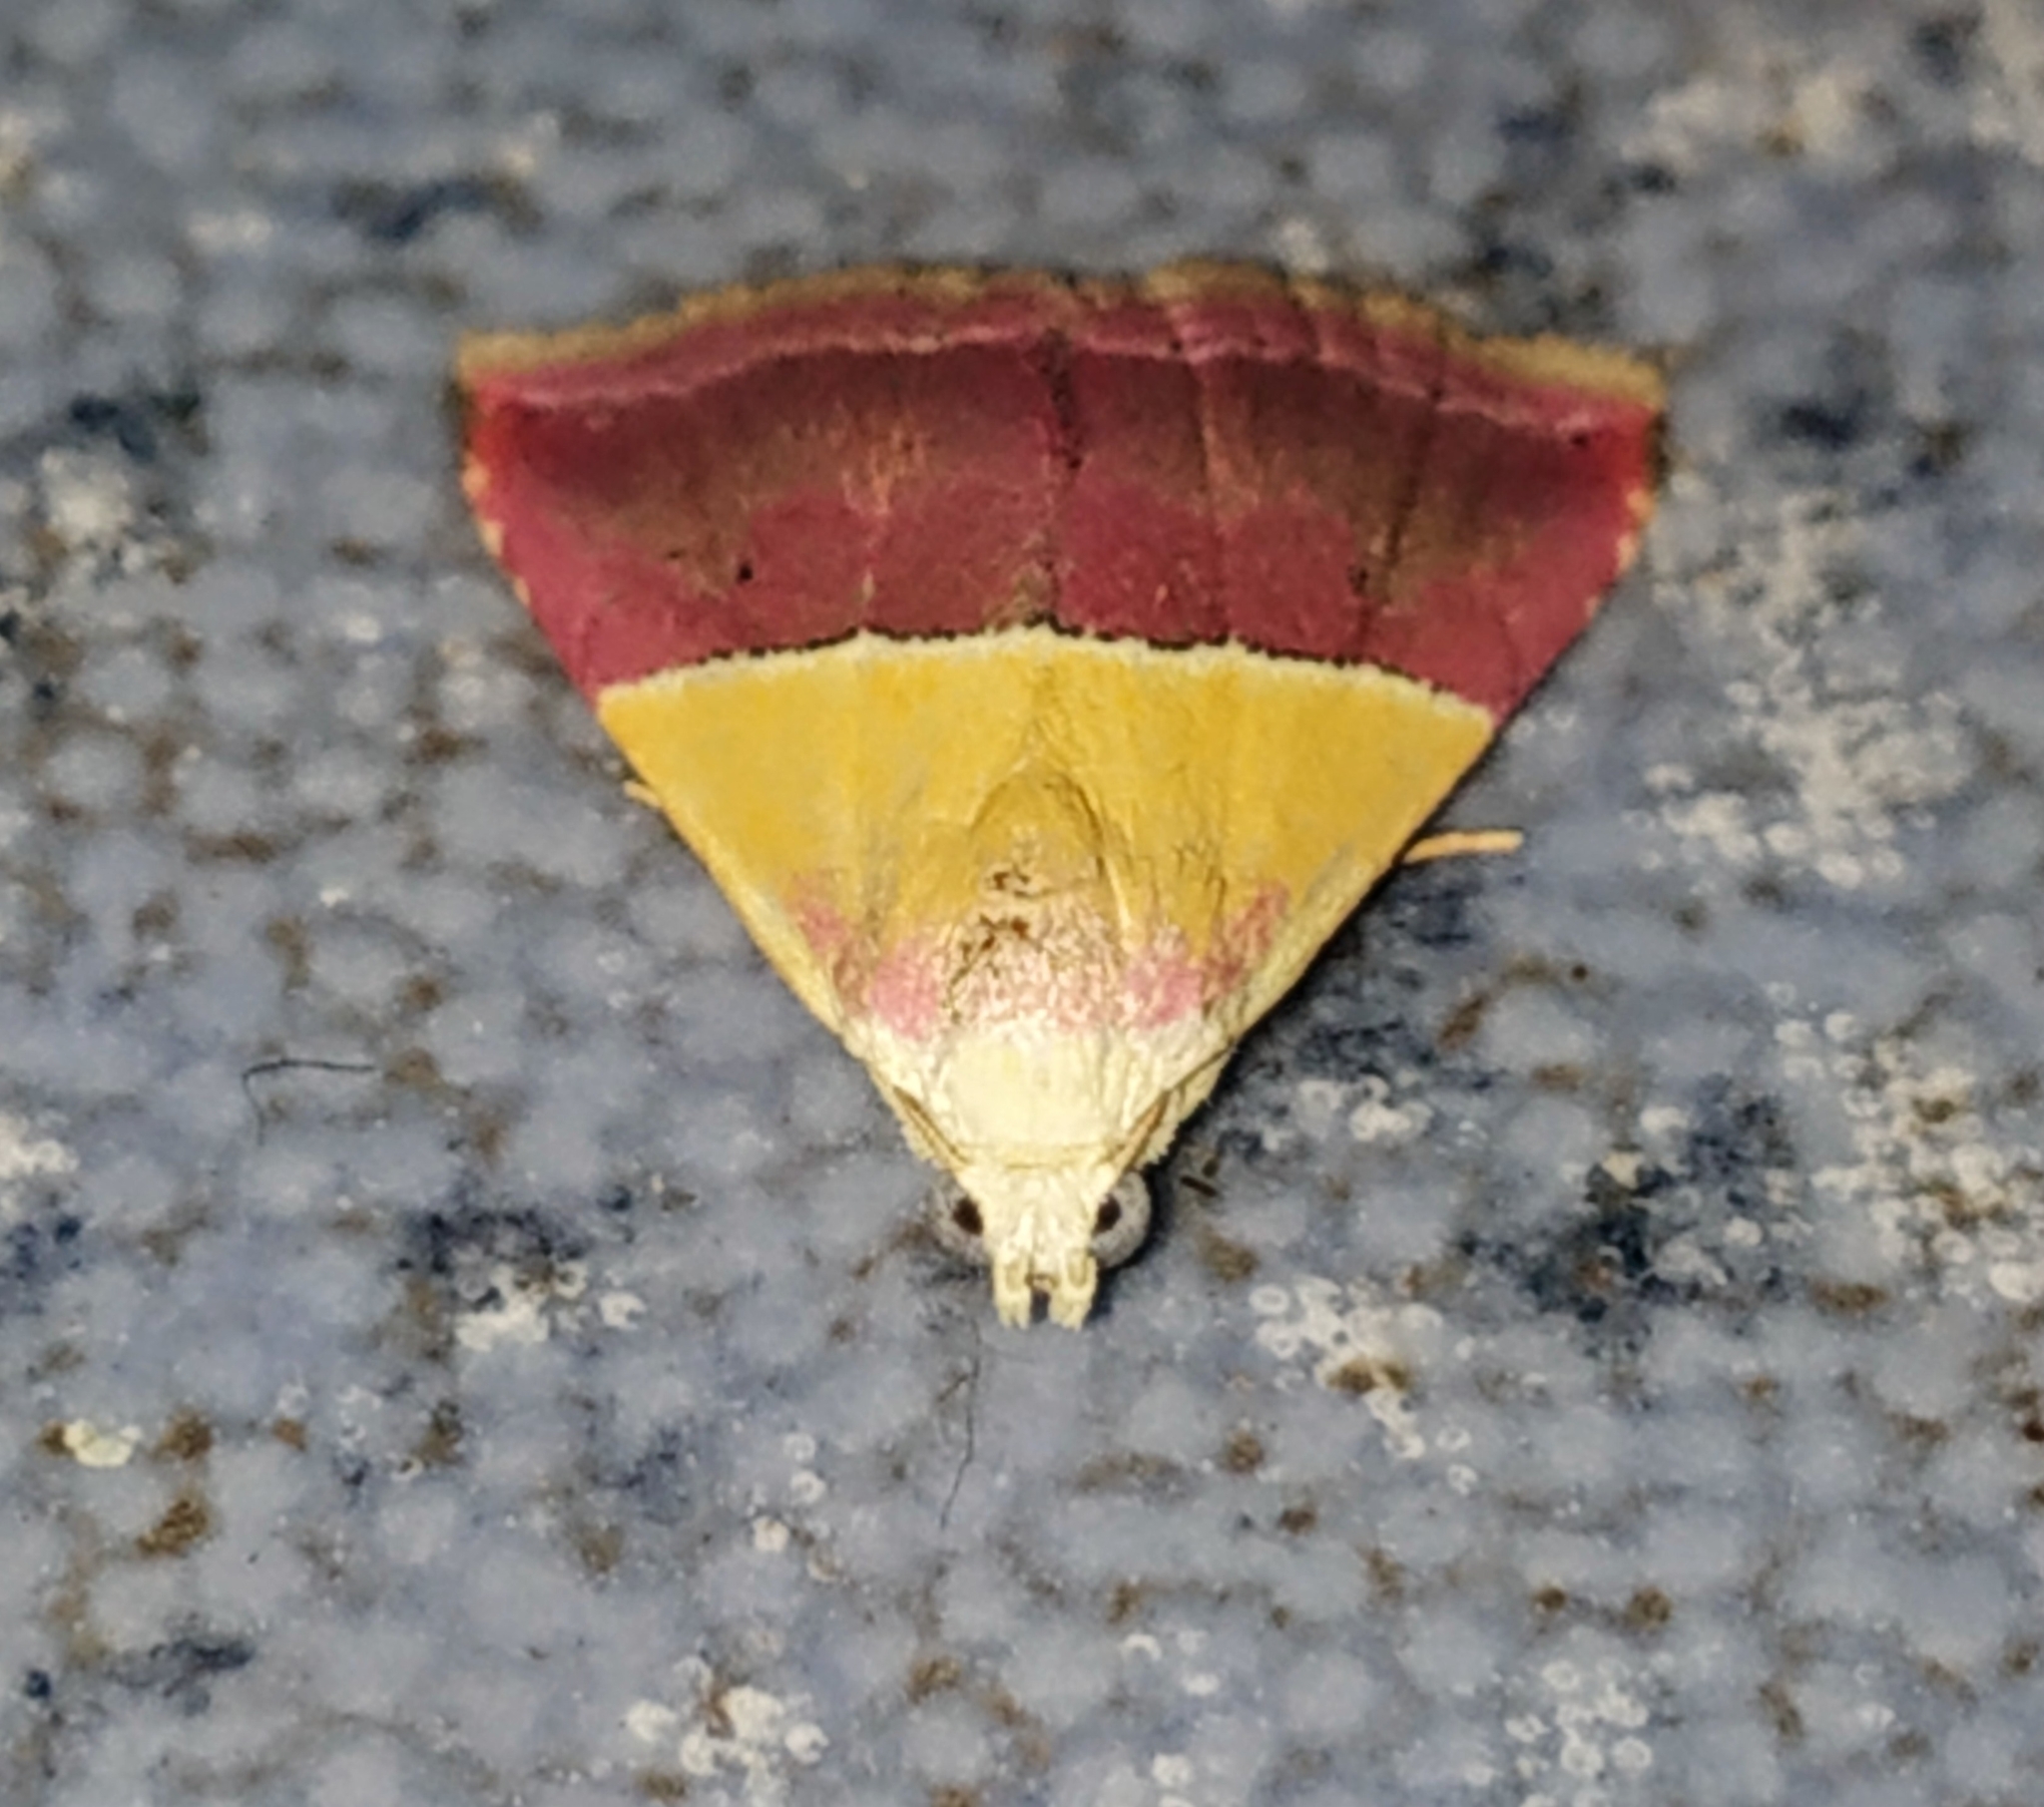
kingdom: Animalia
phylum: Arthropoda
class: Insecta
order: Lepidoptera
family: Noctuidae
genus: Eublemma
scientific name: Eublemma accedens
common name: Moth
